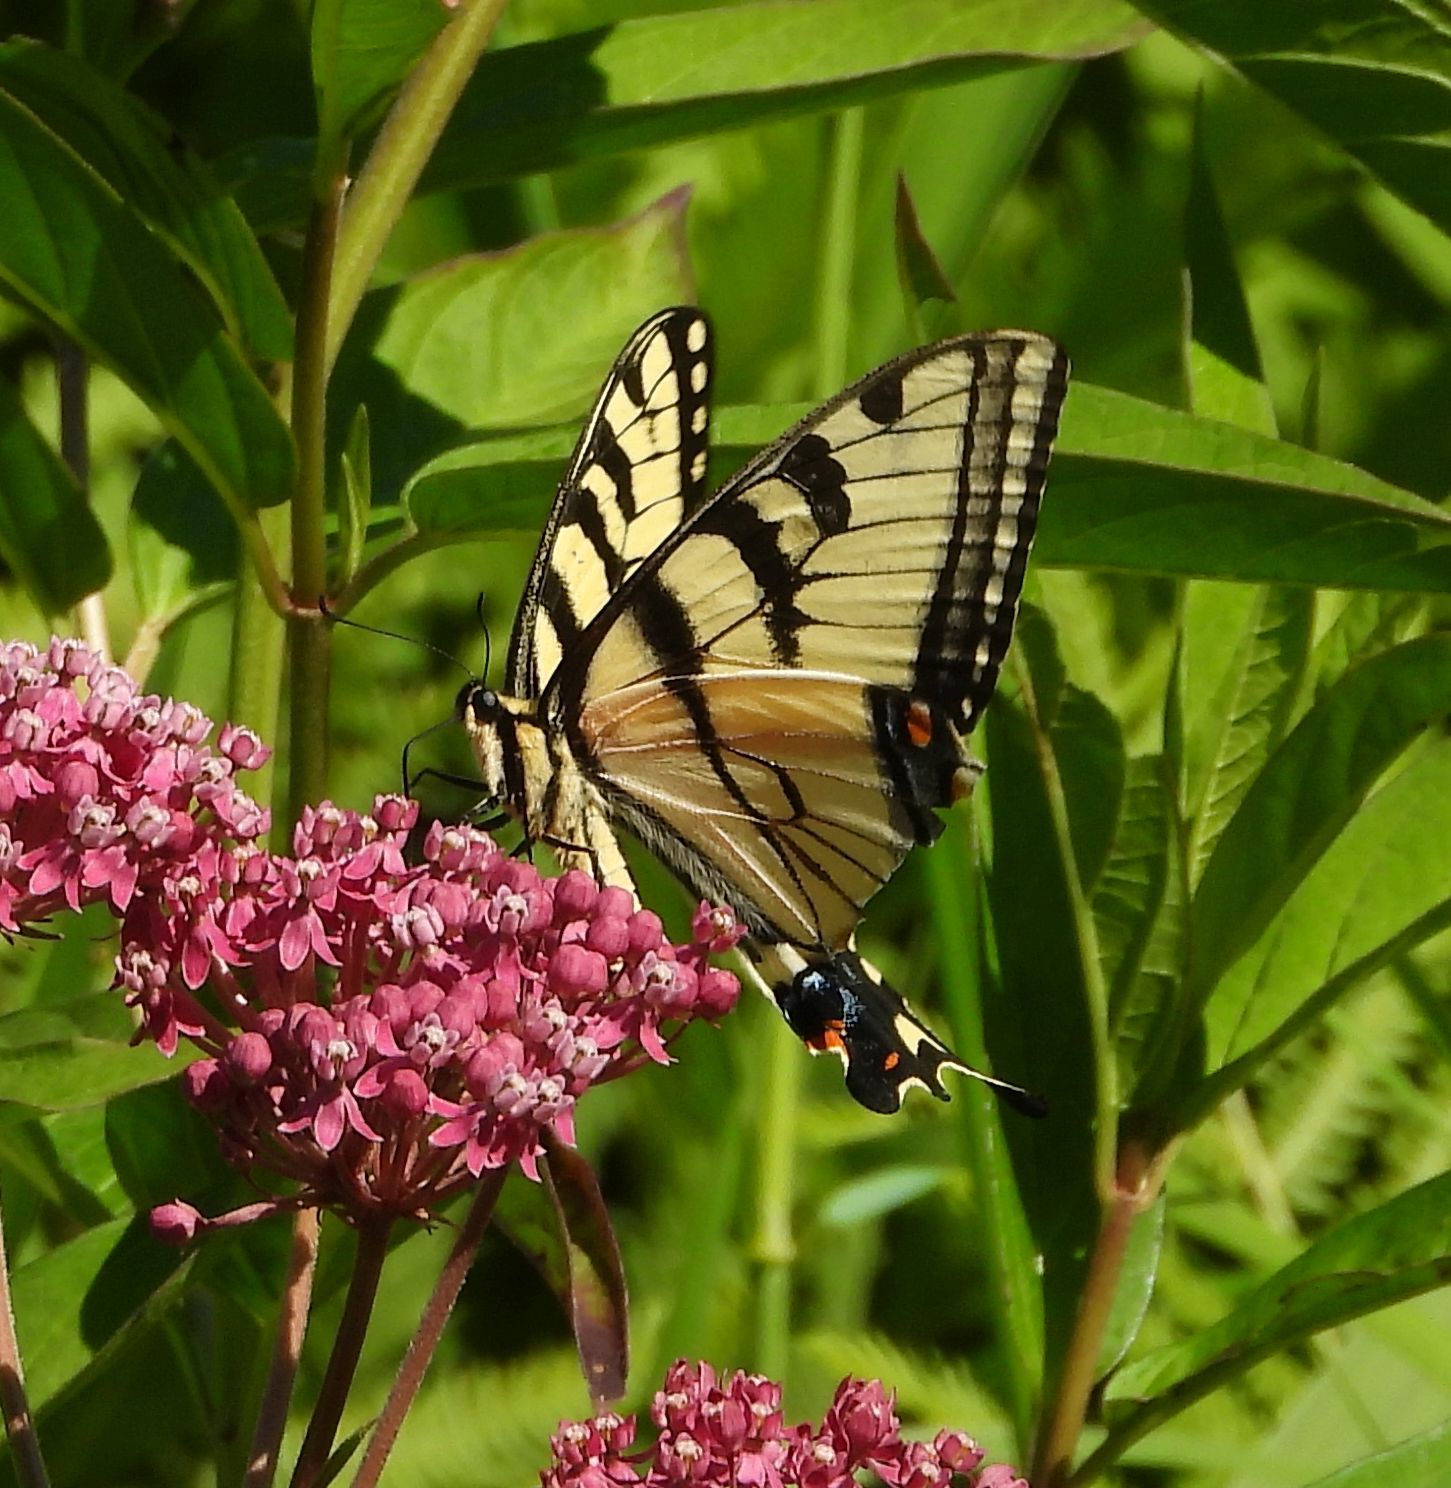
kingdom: Animalia
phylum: Arthropoda
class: Insecta
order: Lepidoptera
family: Papilionidae
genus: Papilio
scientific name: Papilio
